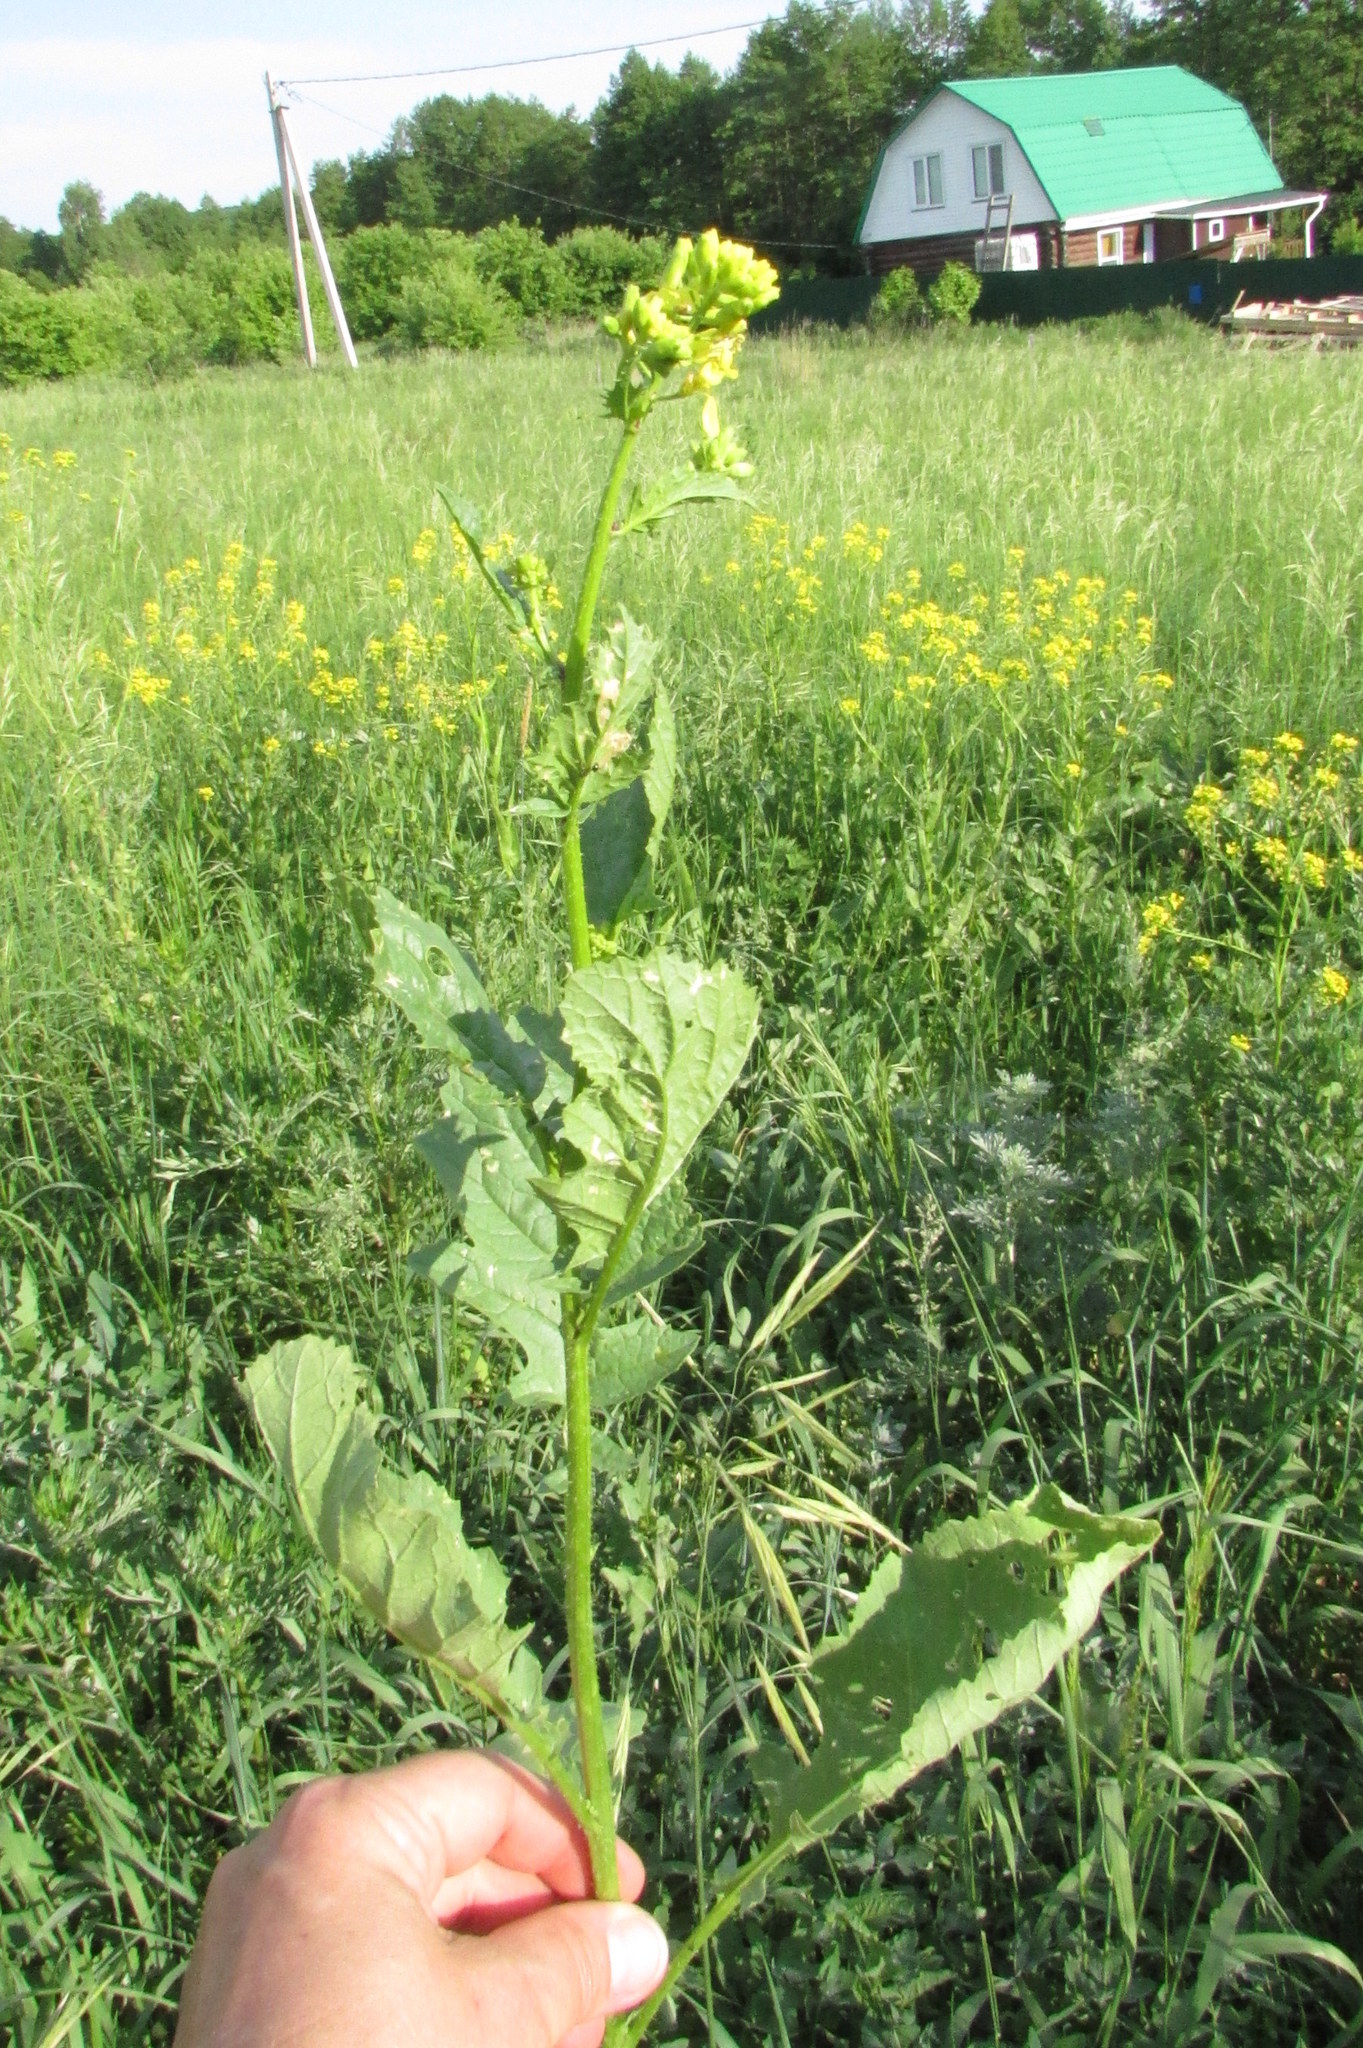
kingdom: Plantae
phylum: Tracheophyta
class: Magnoliopsida
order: Brassicales
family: Brassicaceae
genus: Raphanus
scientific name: Raphanus raphanistrum
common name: Wild radish
